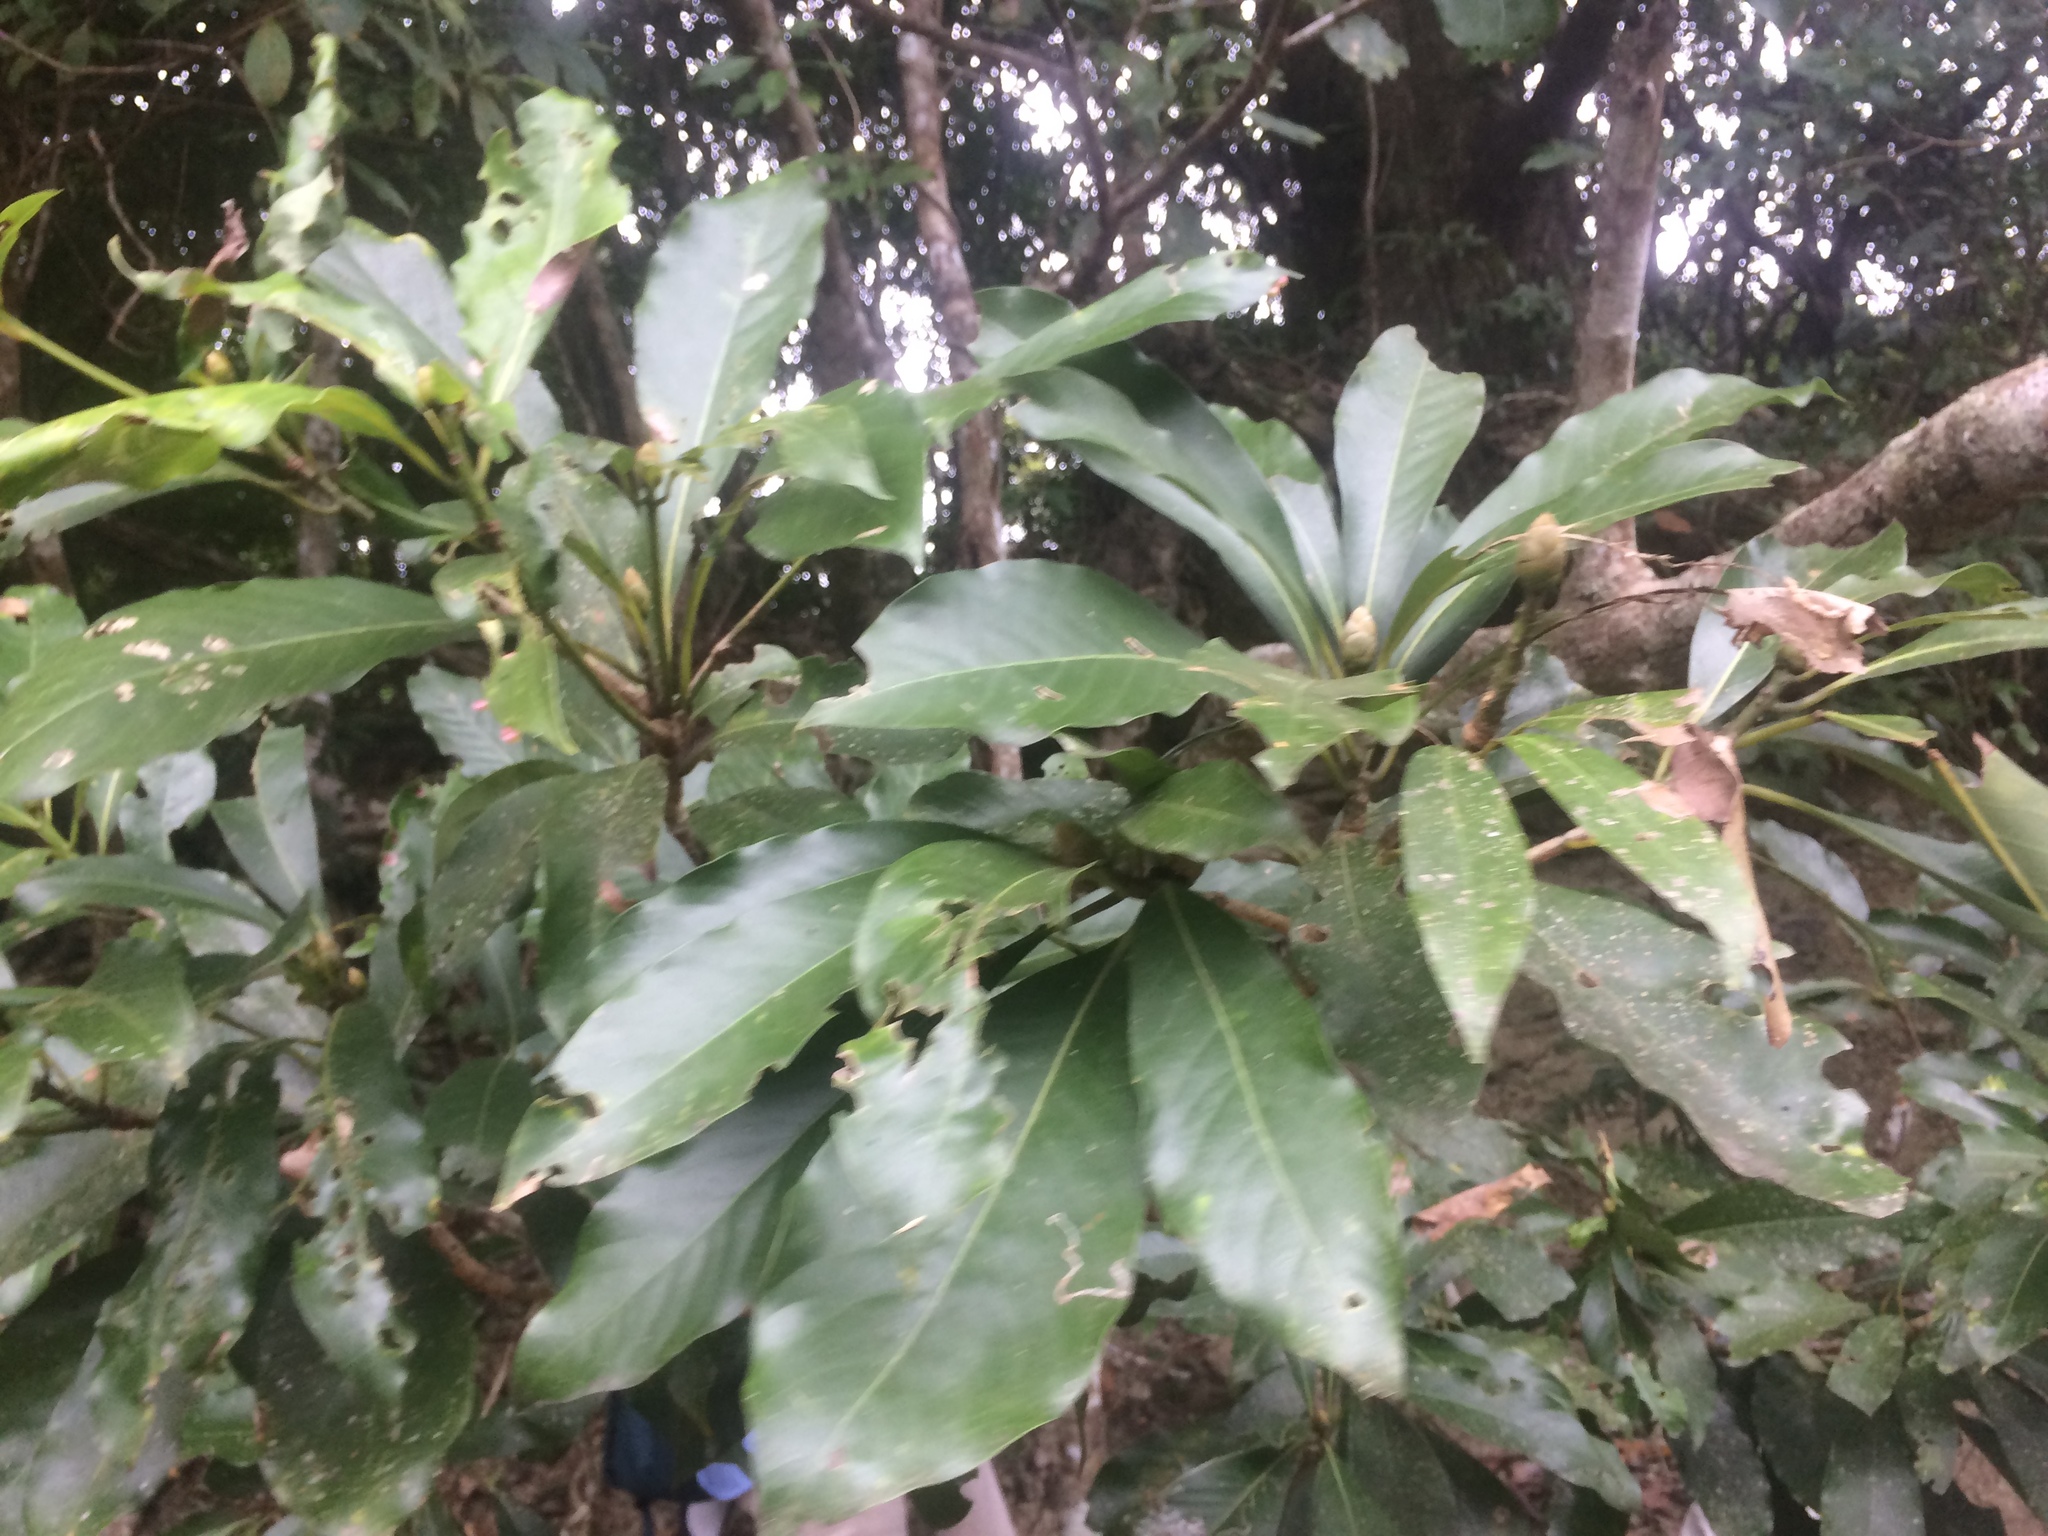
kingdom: Plantae
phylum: Tracheophyta
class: Magnoliopsida
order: Laurales
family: Lauraceae
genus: Machilus
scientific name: Machilus japonica
